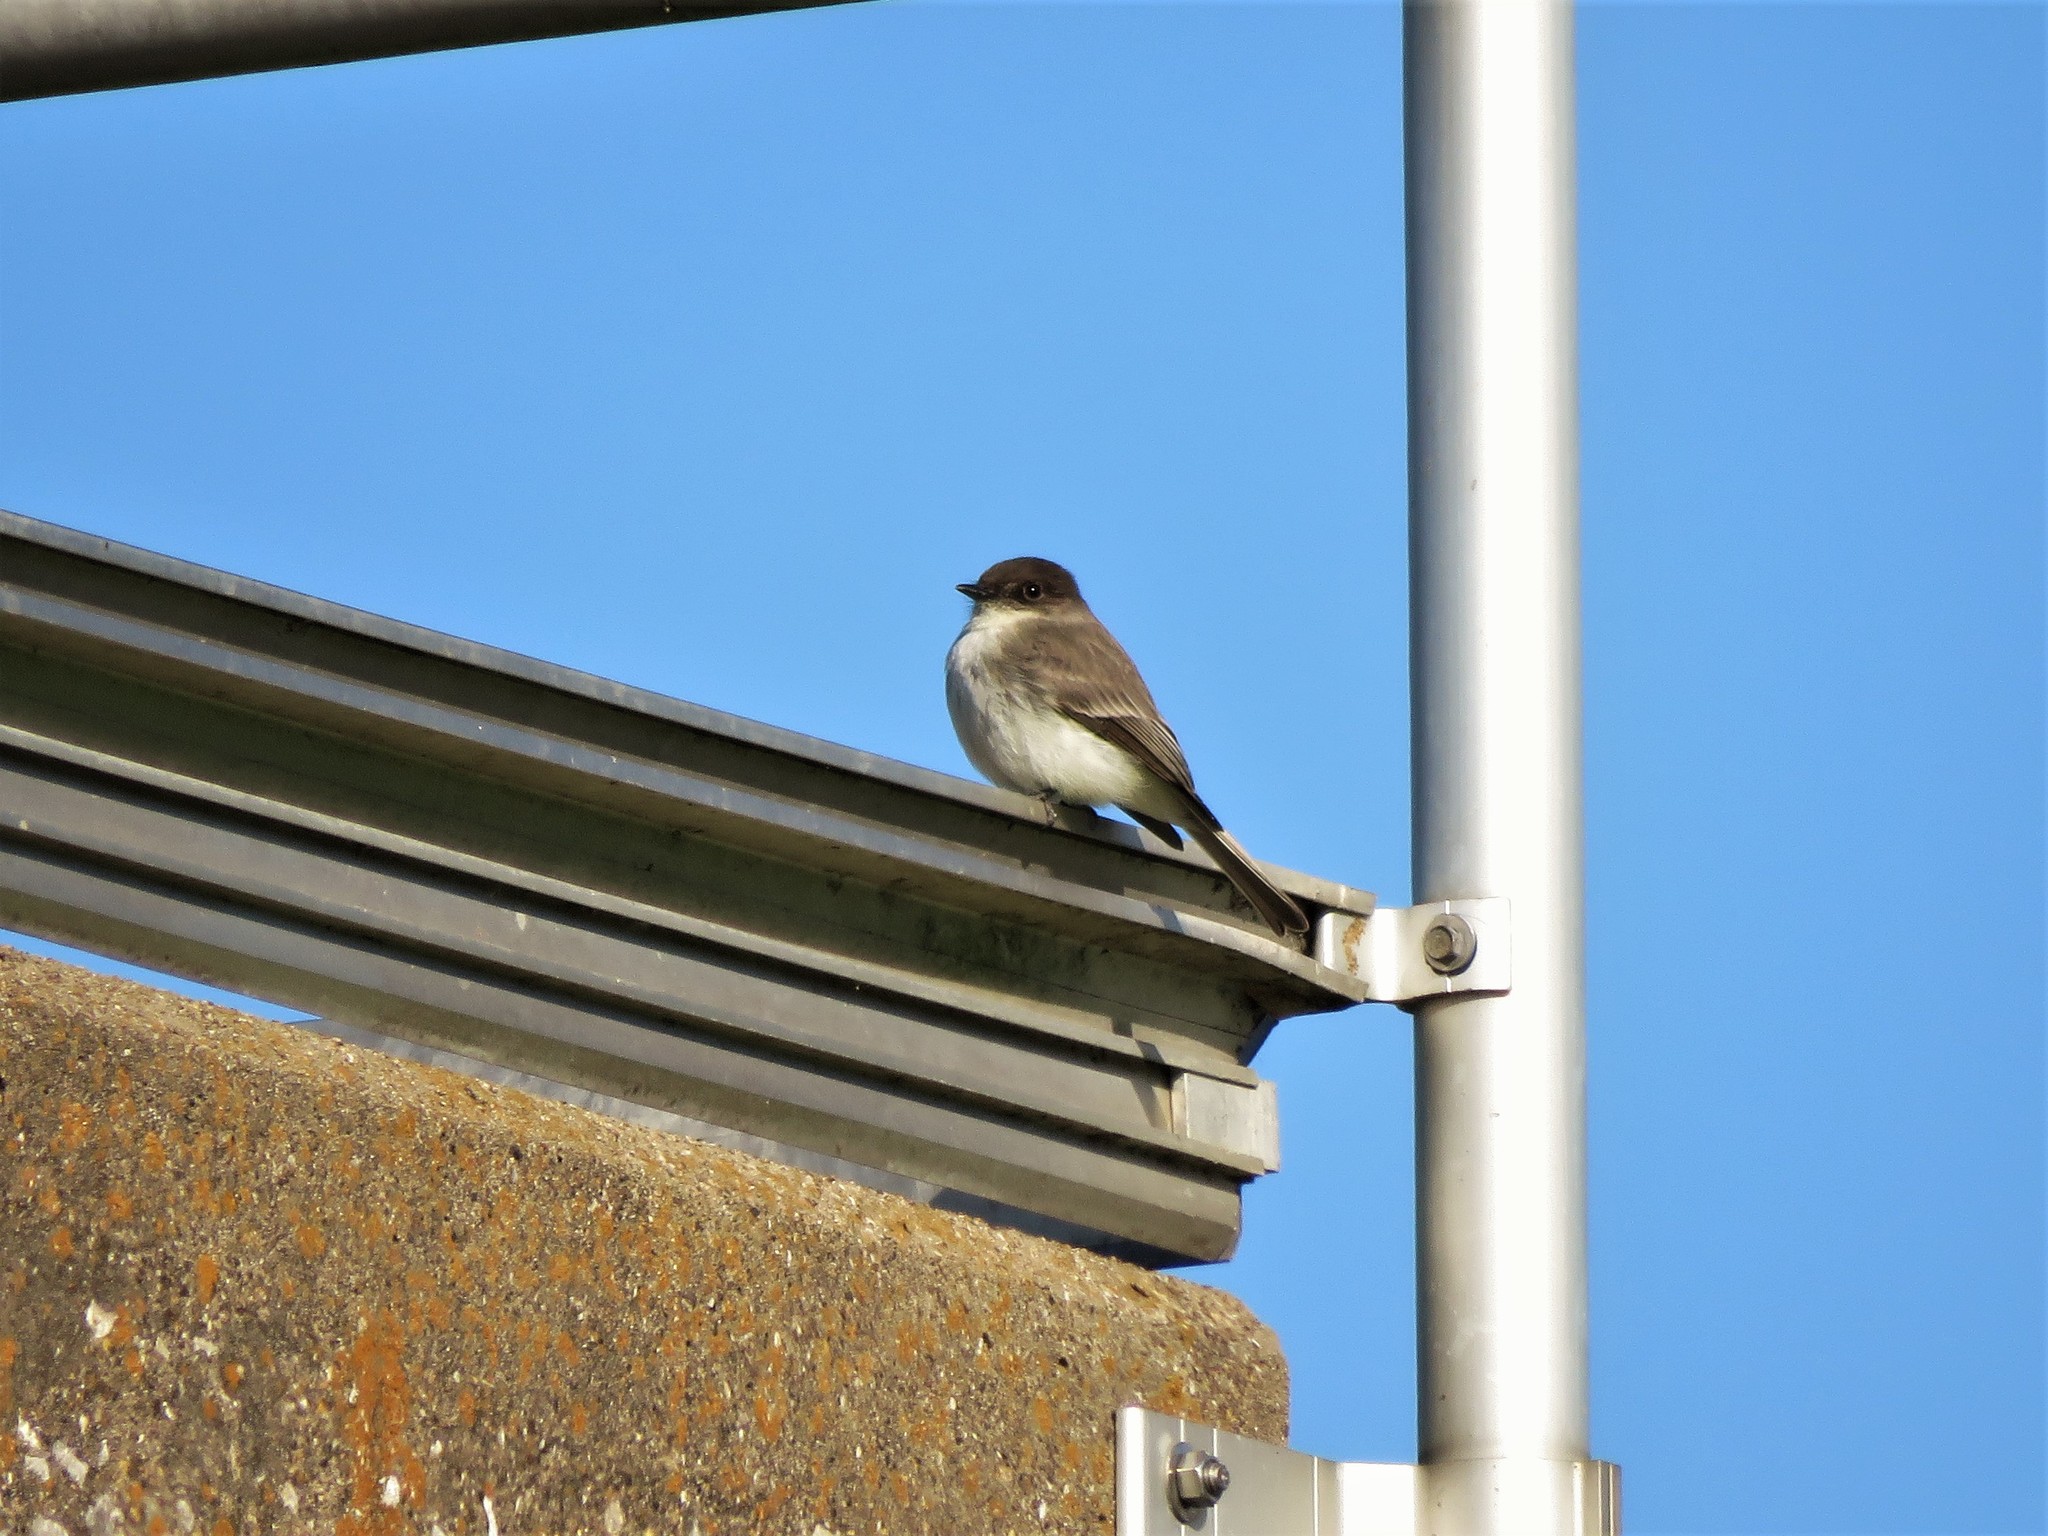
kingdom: Animalia
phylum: Chordata
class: Aves
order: Passeriformes
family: Tyrannidae
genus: Sayornis
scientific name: Sayornis phoebe
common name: Eastern phoebe
